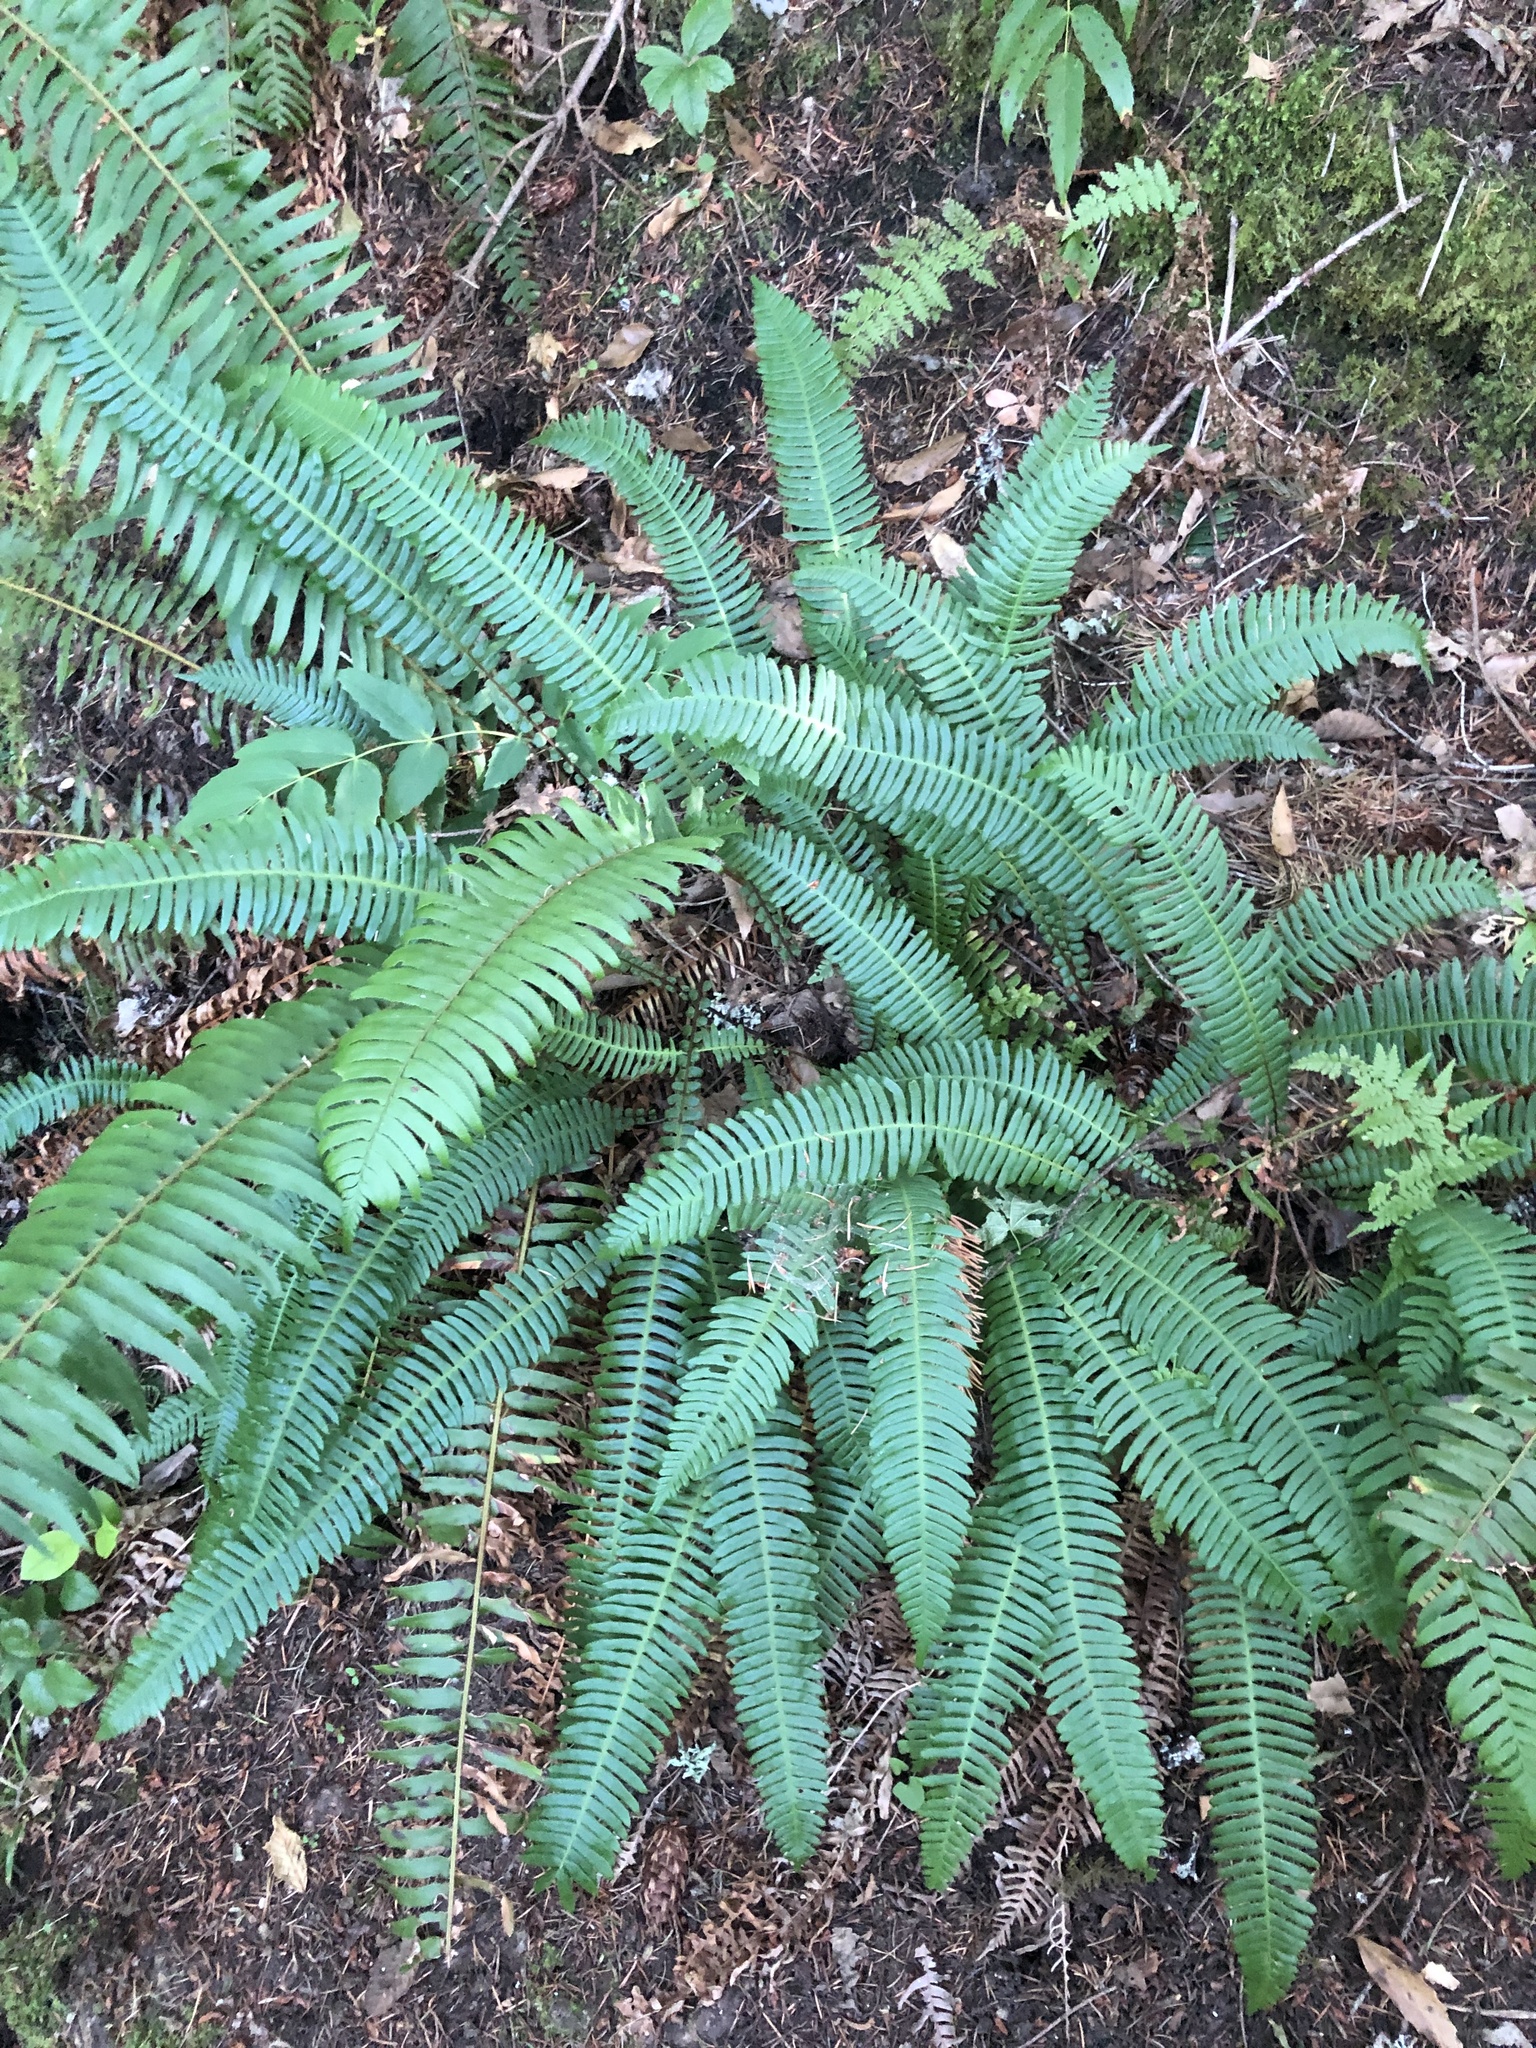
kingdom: Plantae
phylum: Tracheophyta
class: Polypodiopsida
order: Polypodiales
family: Blechnaceae
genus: Struthiopteris
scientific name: Struthiopteris spicant
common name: Deer fern
